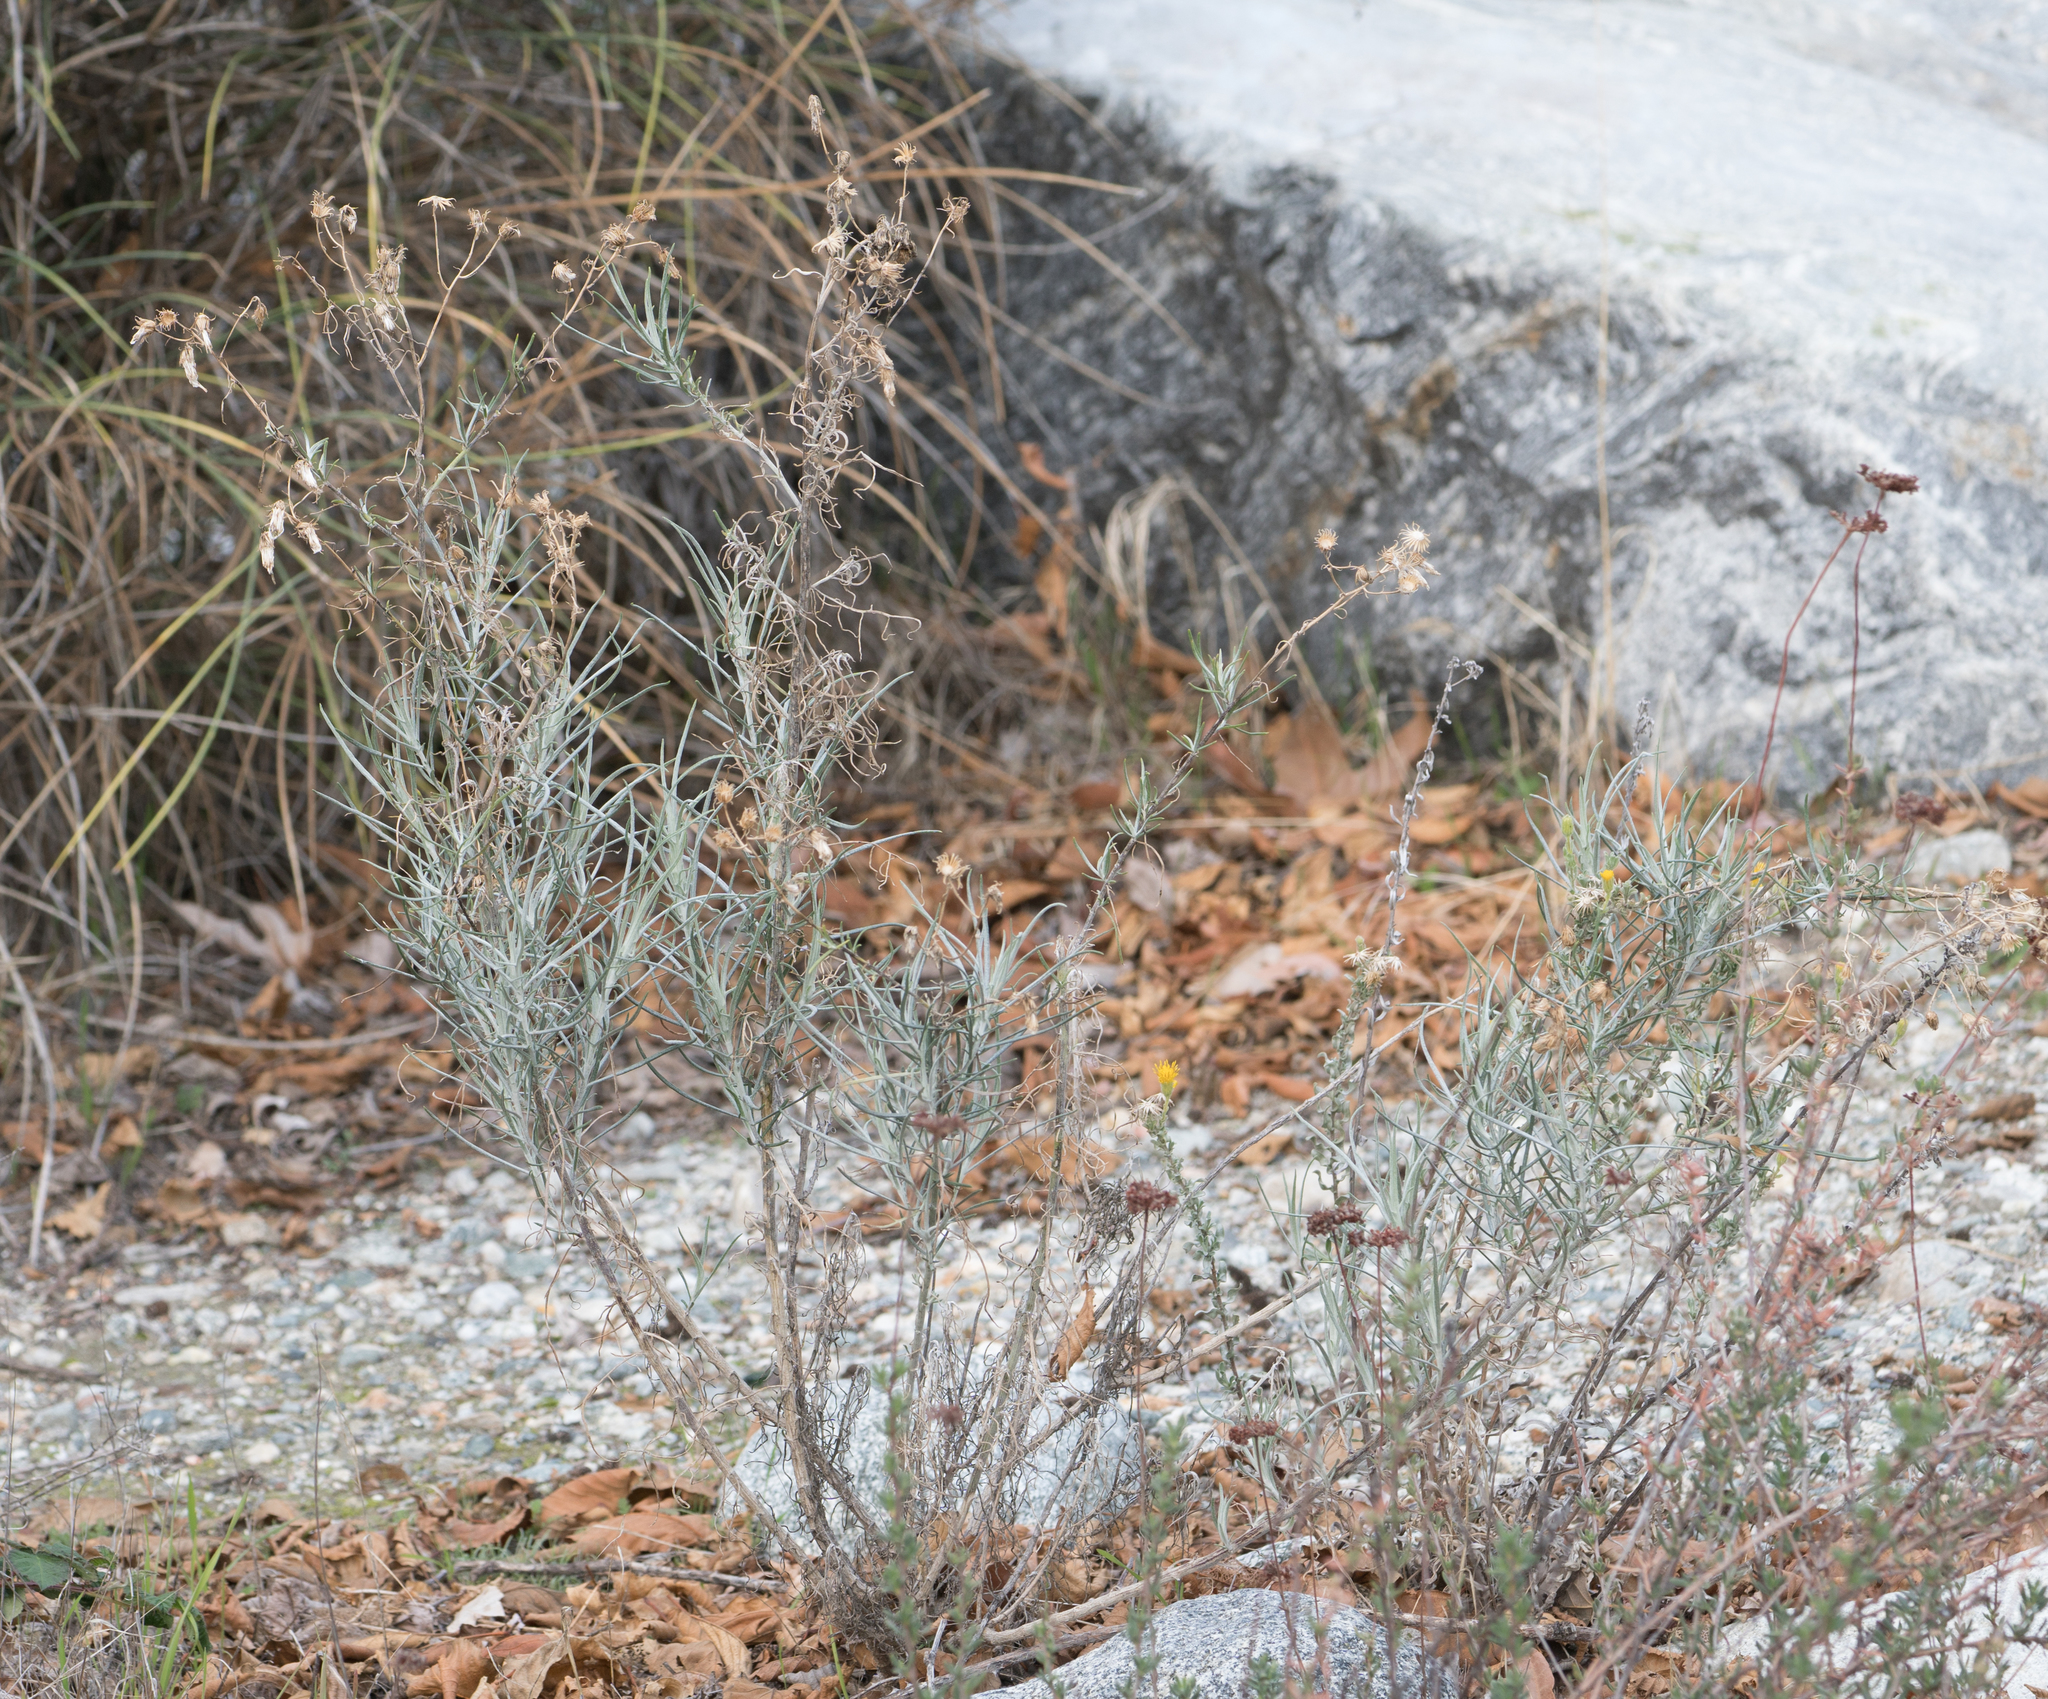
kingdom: Plantae
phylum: Tracheophyta
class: Magnoliopsida
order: Asterales
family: Asteraceae
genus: Senecio
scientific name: Senecio flaccidus
